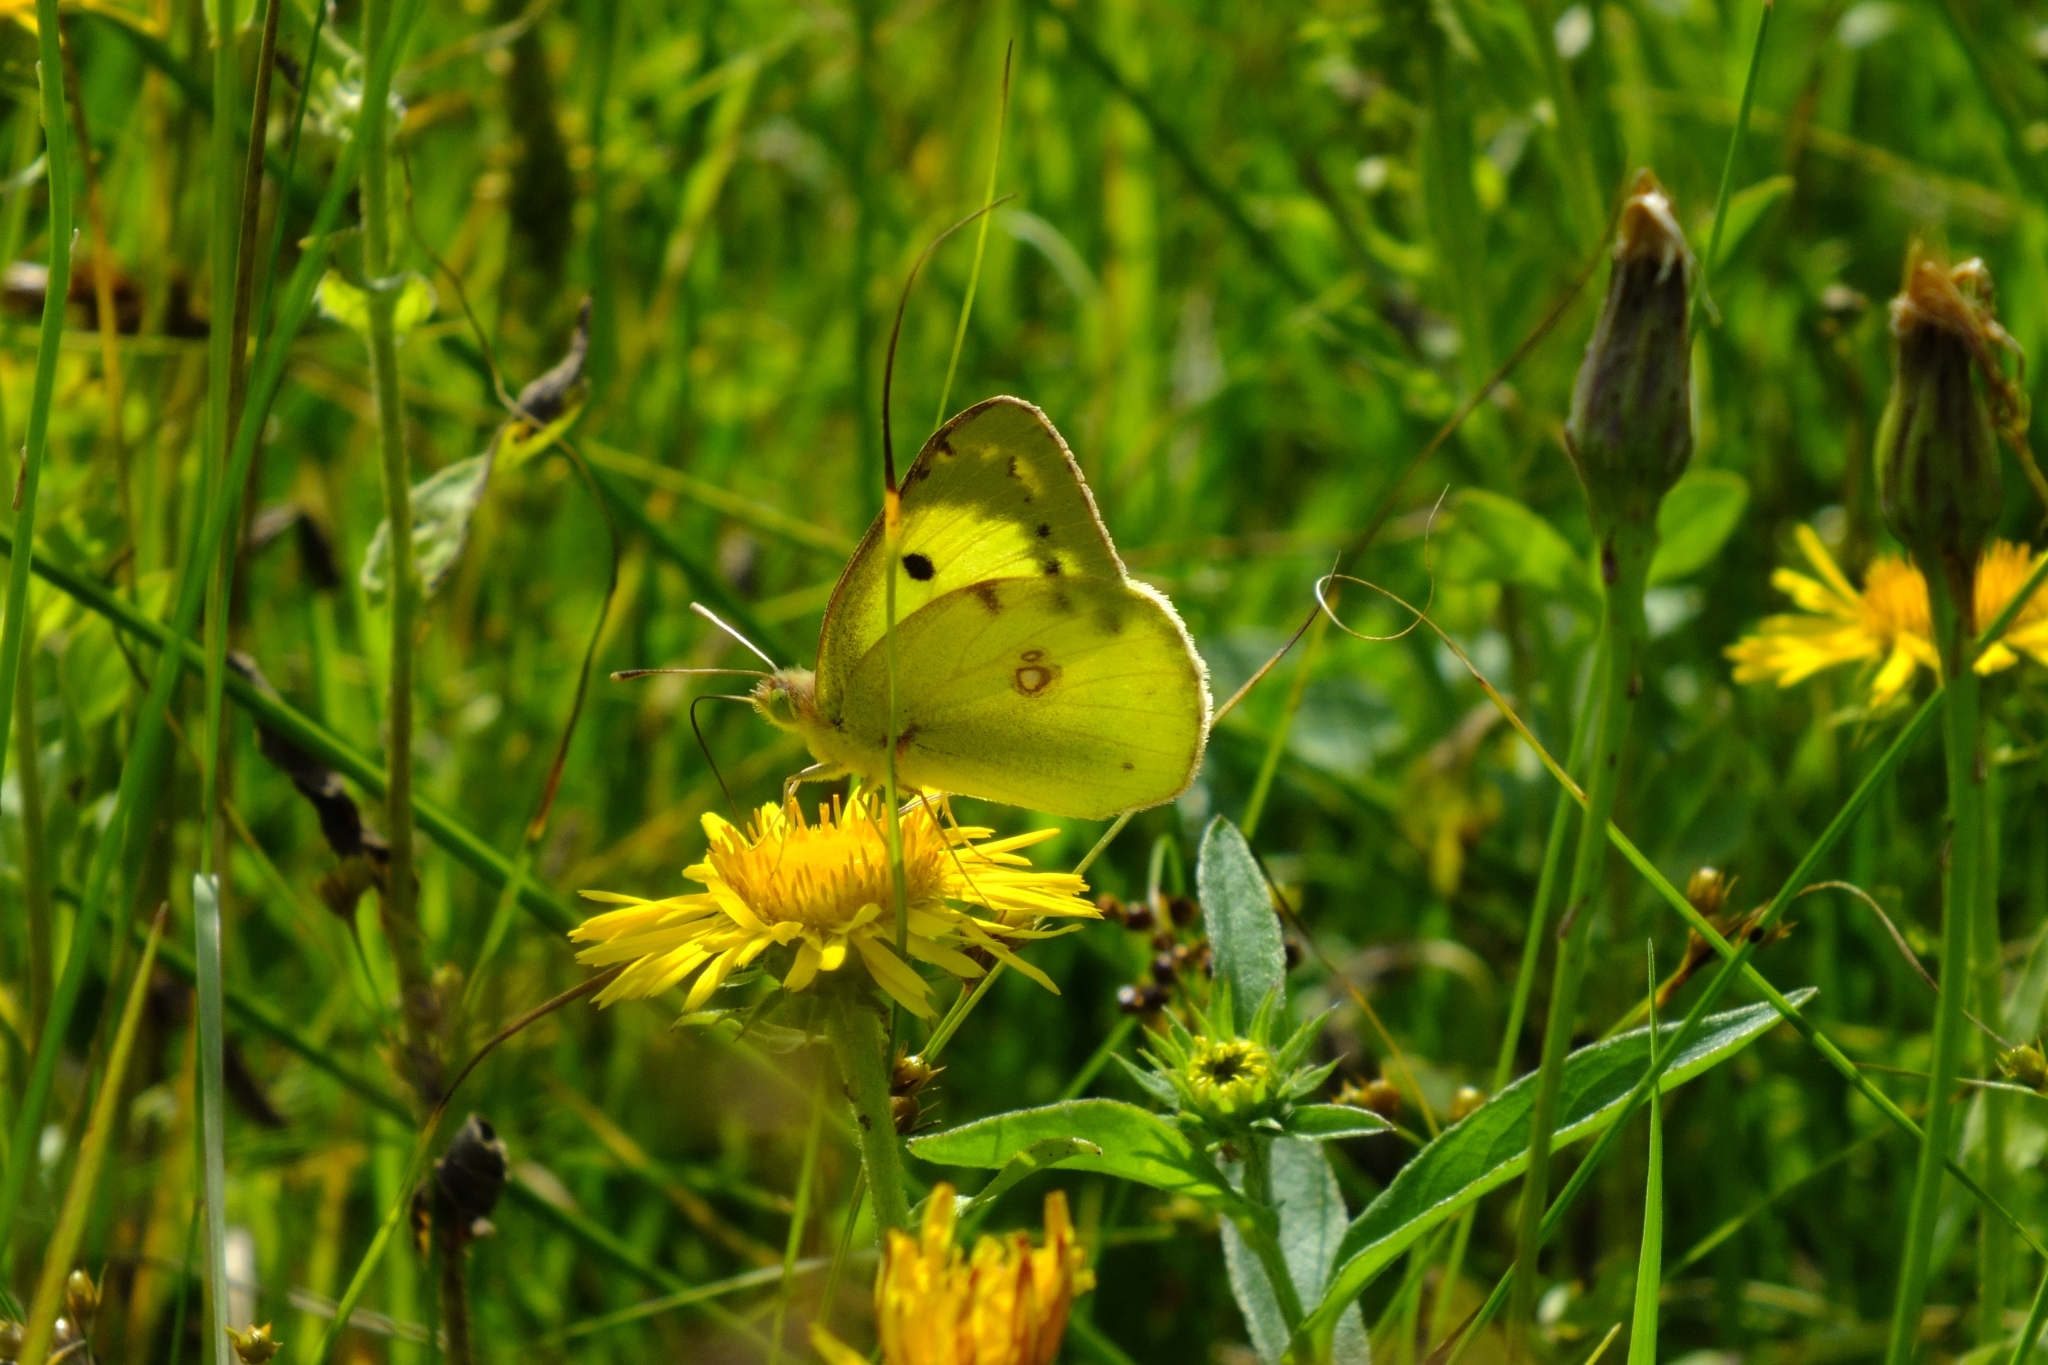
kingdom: Animalia
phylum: Arthropoda
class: Insecta
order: Lepidoptera
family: Pieridae
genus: Colias
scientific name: Colias hyale
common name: Pale clouded yellow
